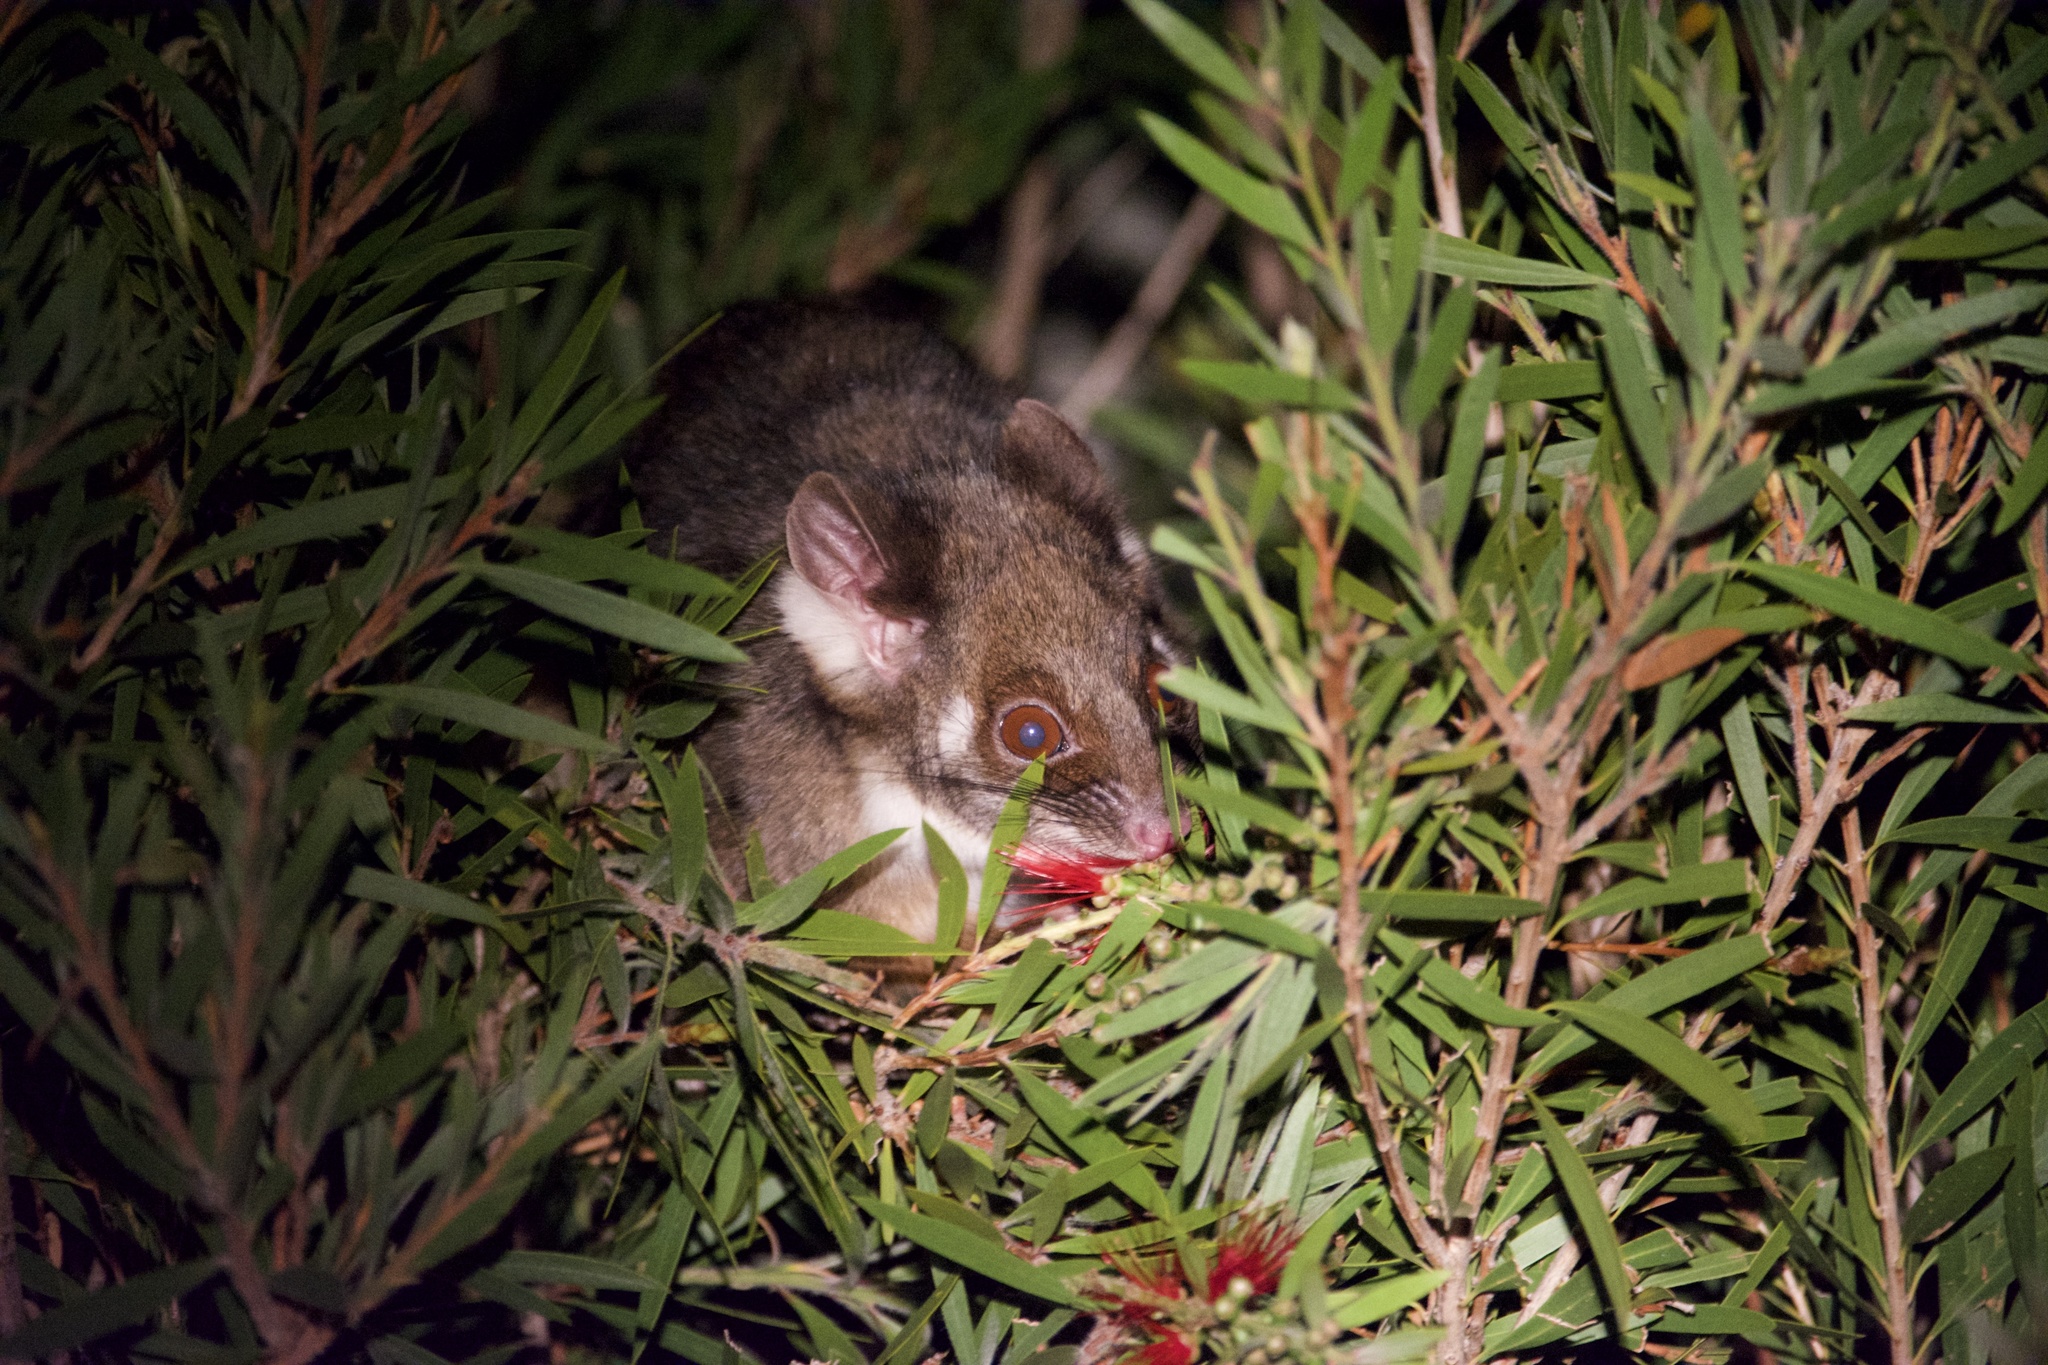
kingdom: Animalia
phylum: Chordata
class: Mammalia
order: Diprotodontia
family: Pseudocheiridae
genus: Pseudocheirus
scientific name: Pseudocheirus peregrinus
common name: Common ringtail possum
